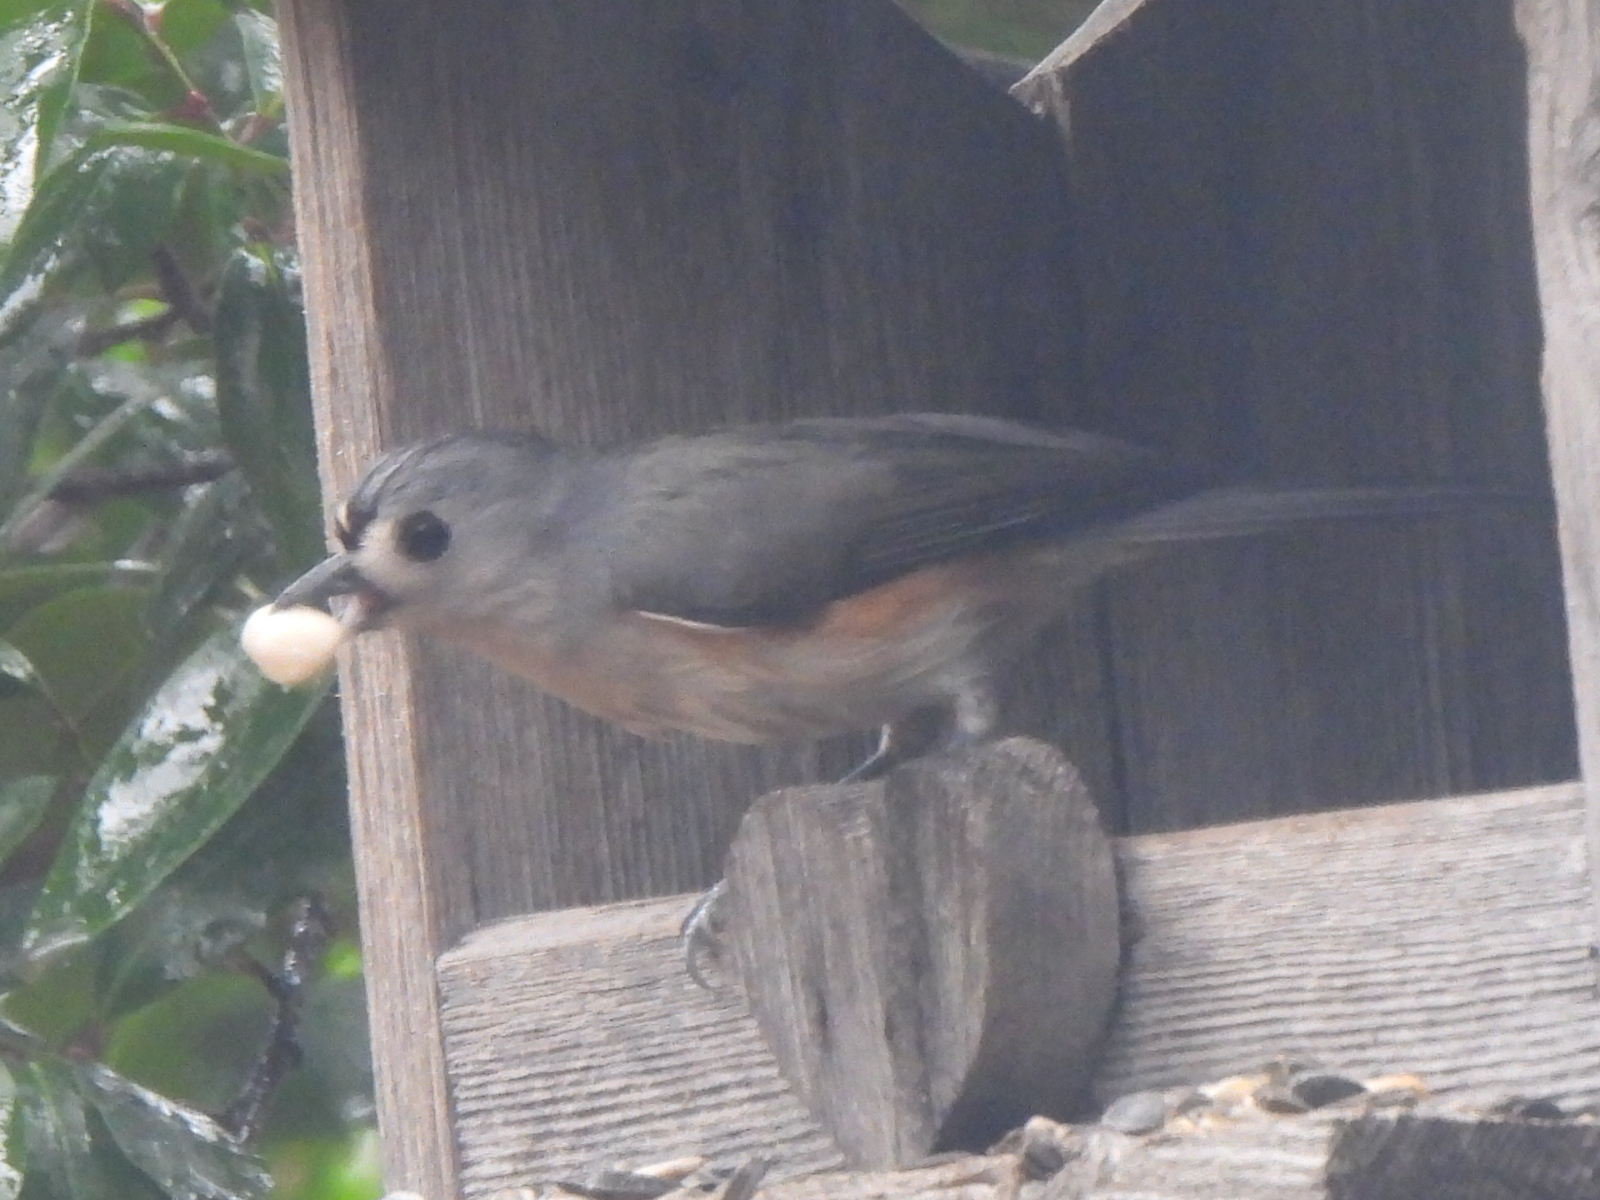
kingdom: Animalia
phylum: Chordata
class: Aves
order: Passeriformes
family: Paridae
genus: Baeolophus
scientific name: Baeolophus bicolor
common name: Tufted titmouse
